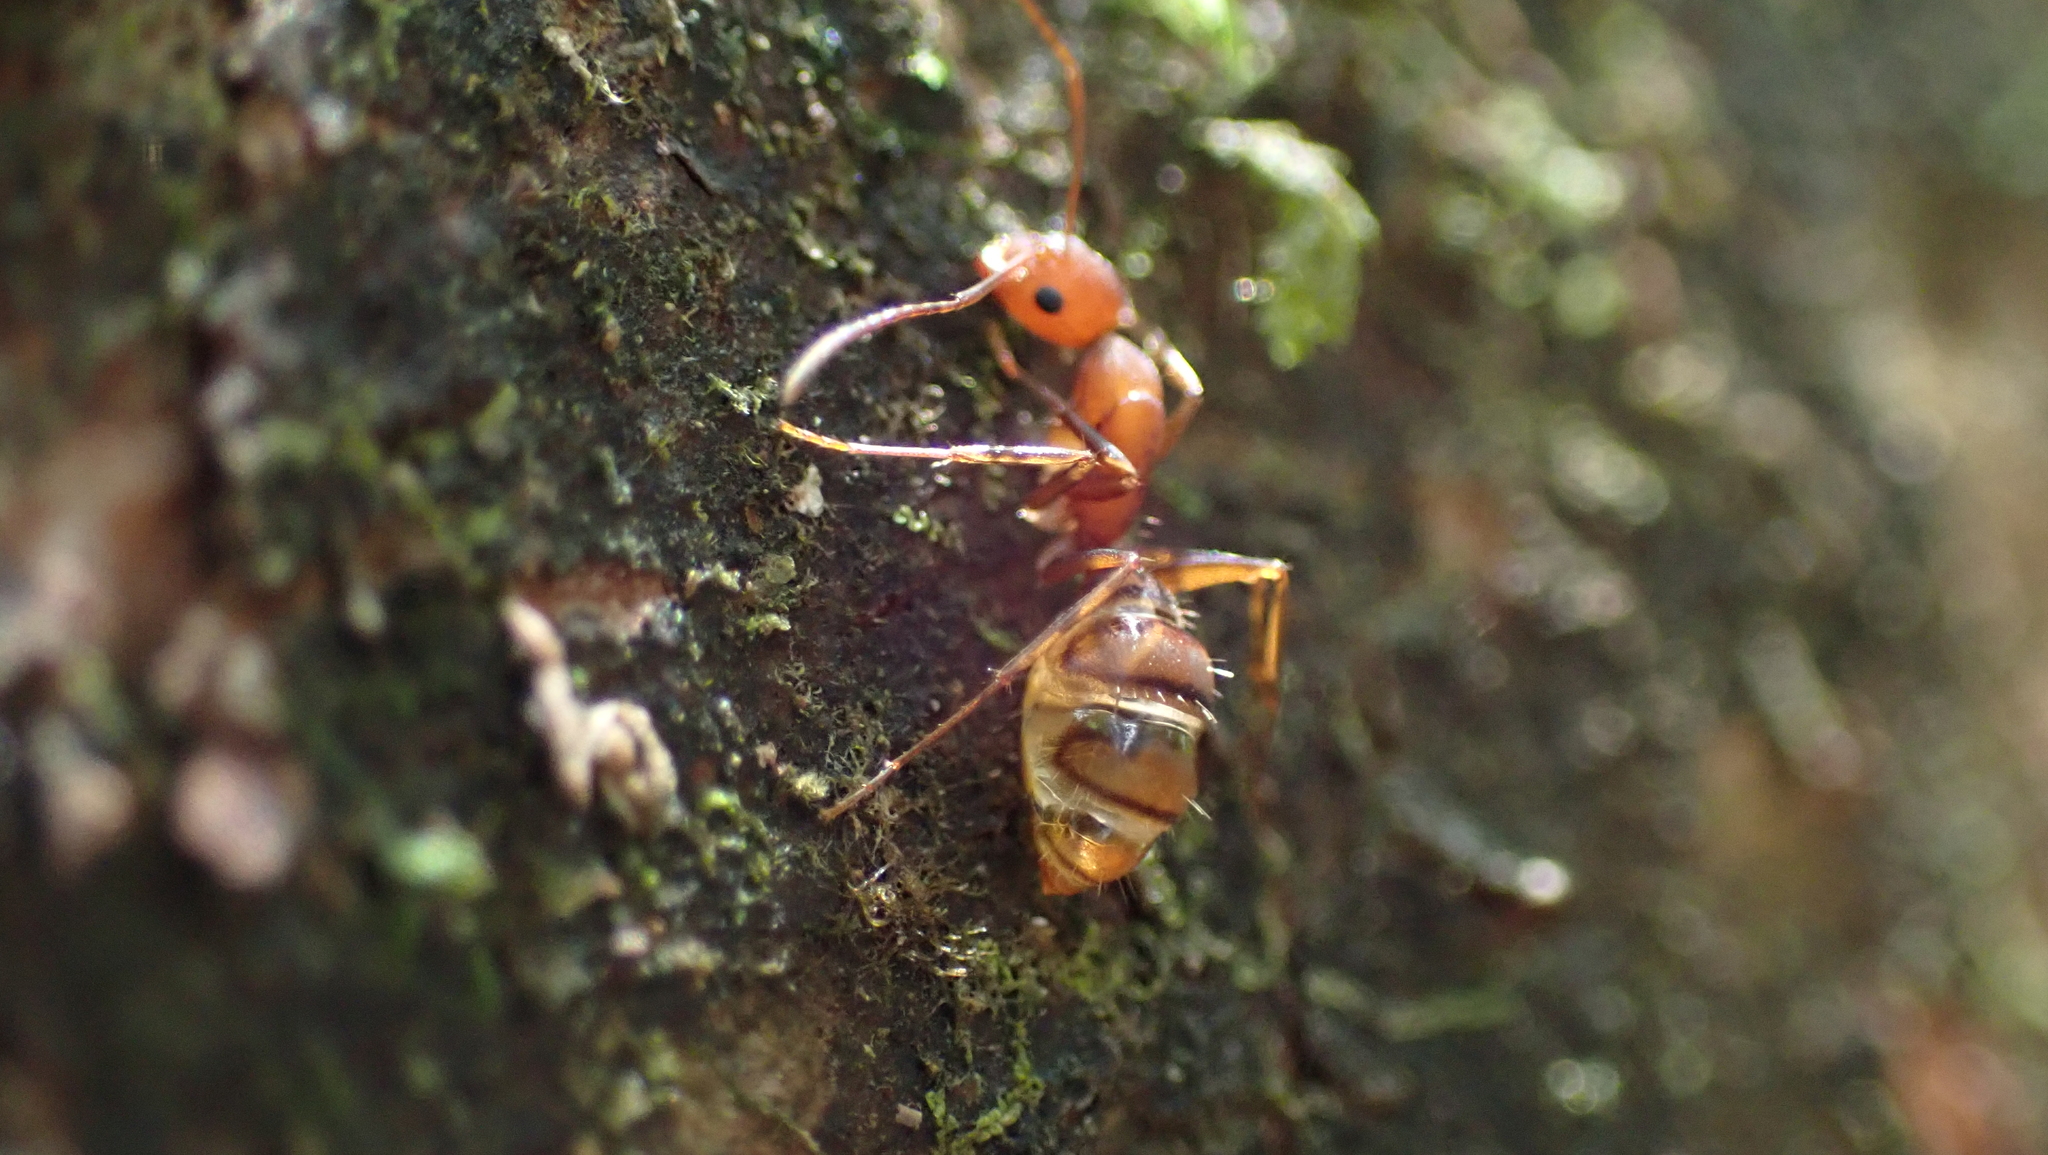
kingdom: Animalia
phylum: Arthropoda
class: Insecta
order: Hymenoptera
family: Formicidae
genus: Camponotus
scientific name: Camponotus juliae
